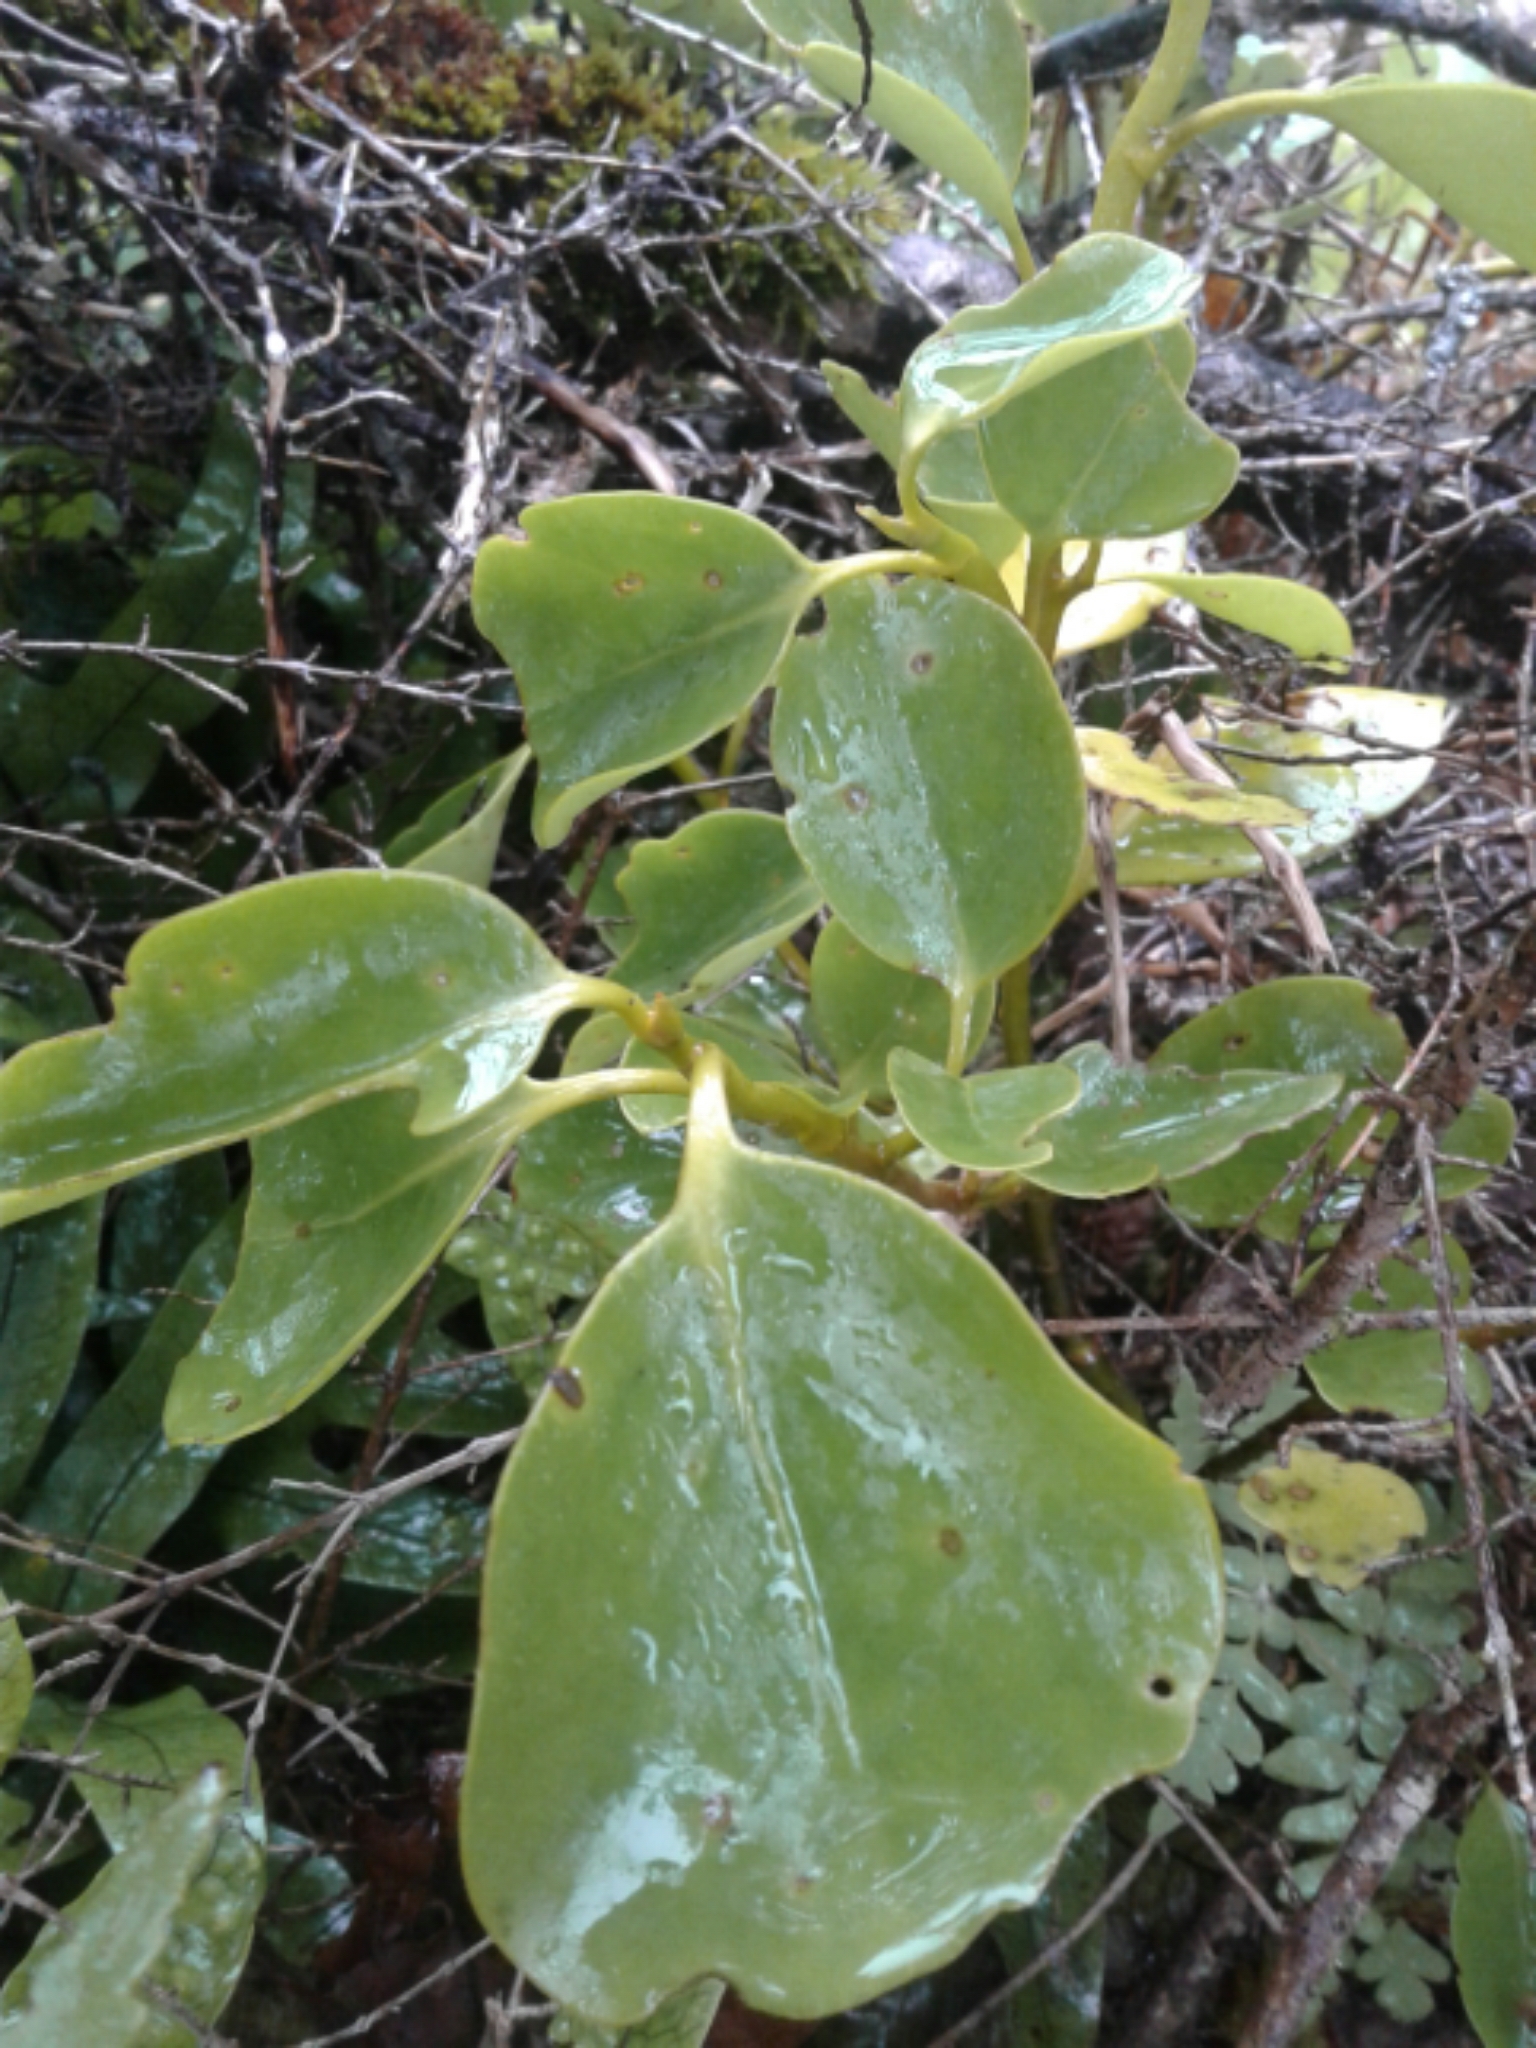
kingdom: Plantae
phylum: Tracheophyta
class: Magnoliopsida
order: Apiales
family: Griseliniaceae
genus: Griselinia
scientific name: Griselinia littoralis
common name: New zealand broadleaf
